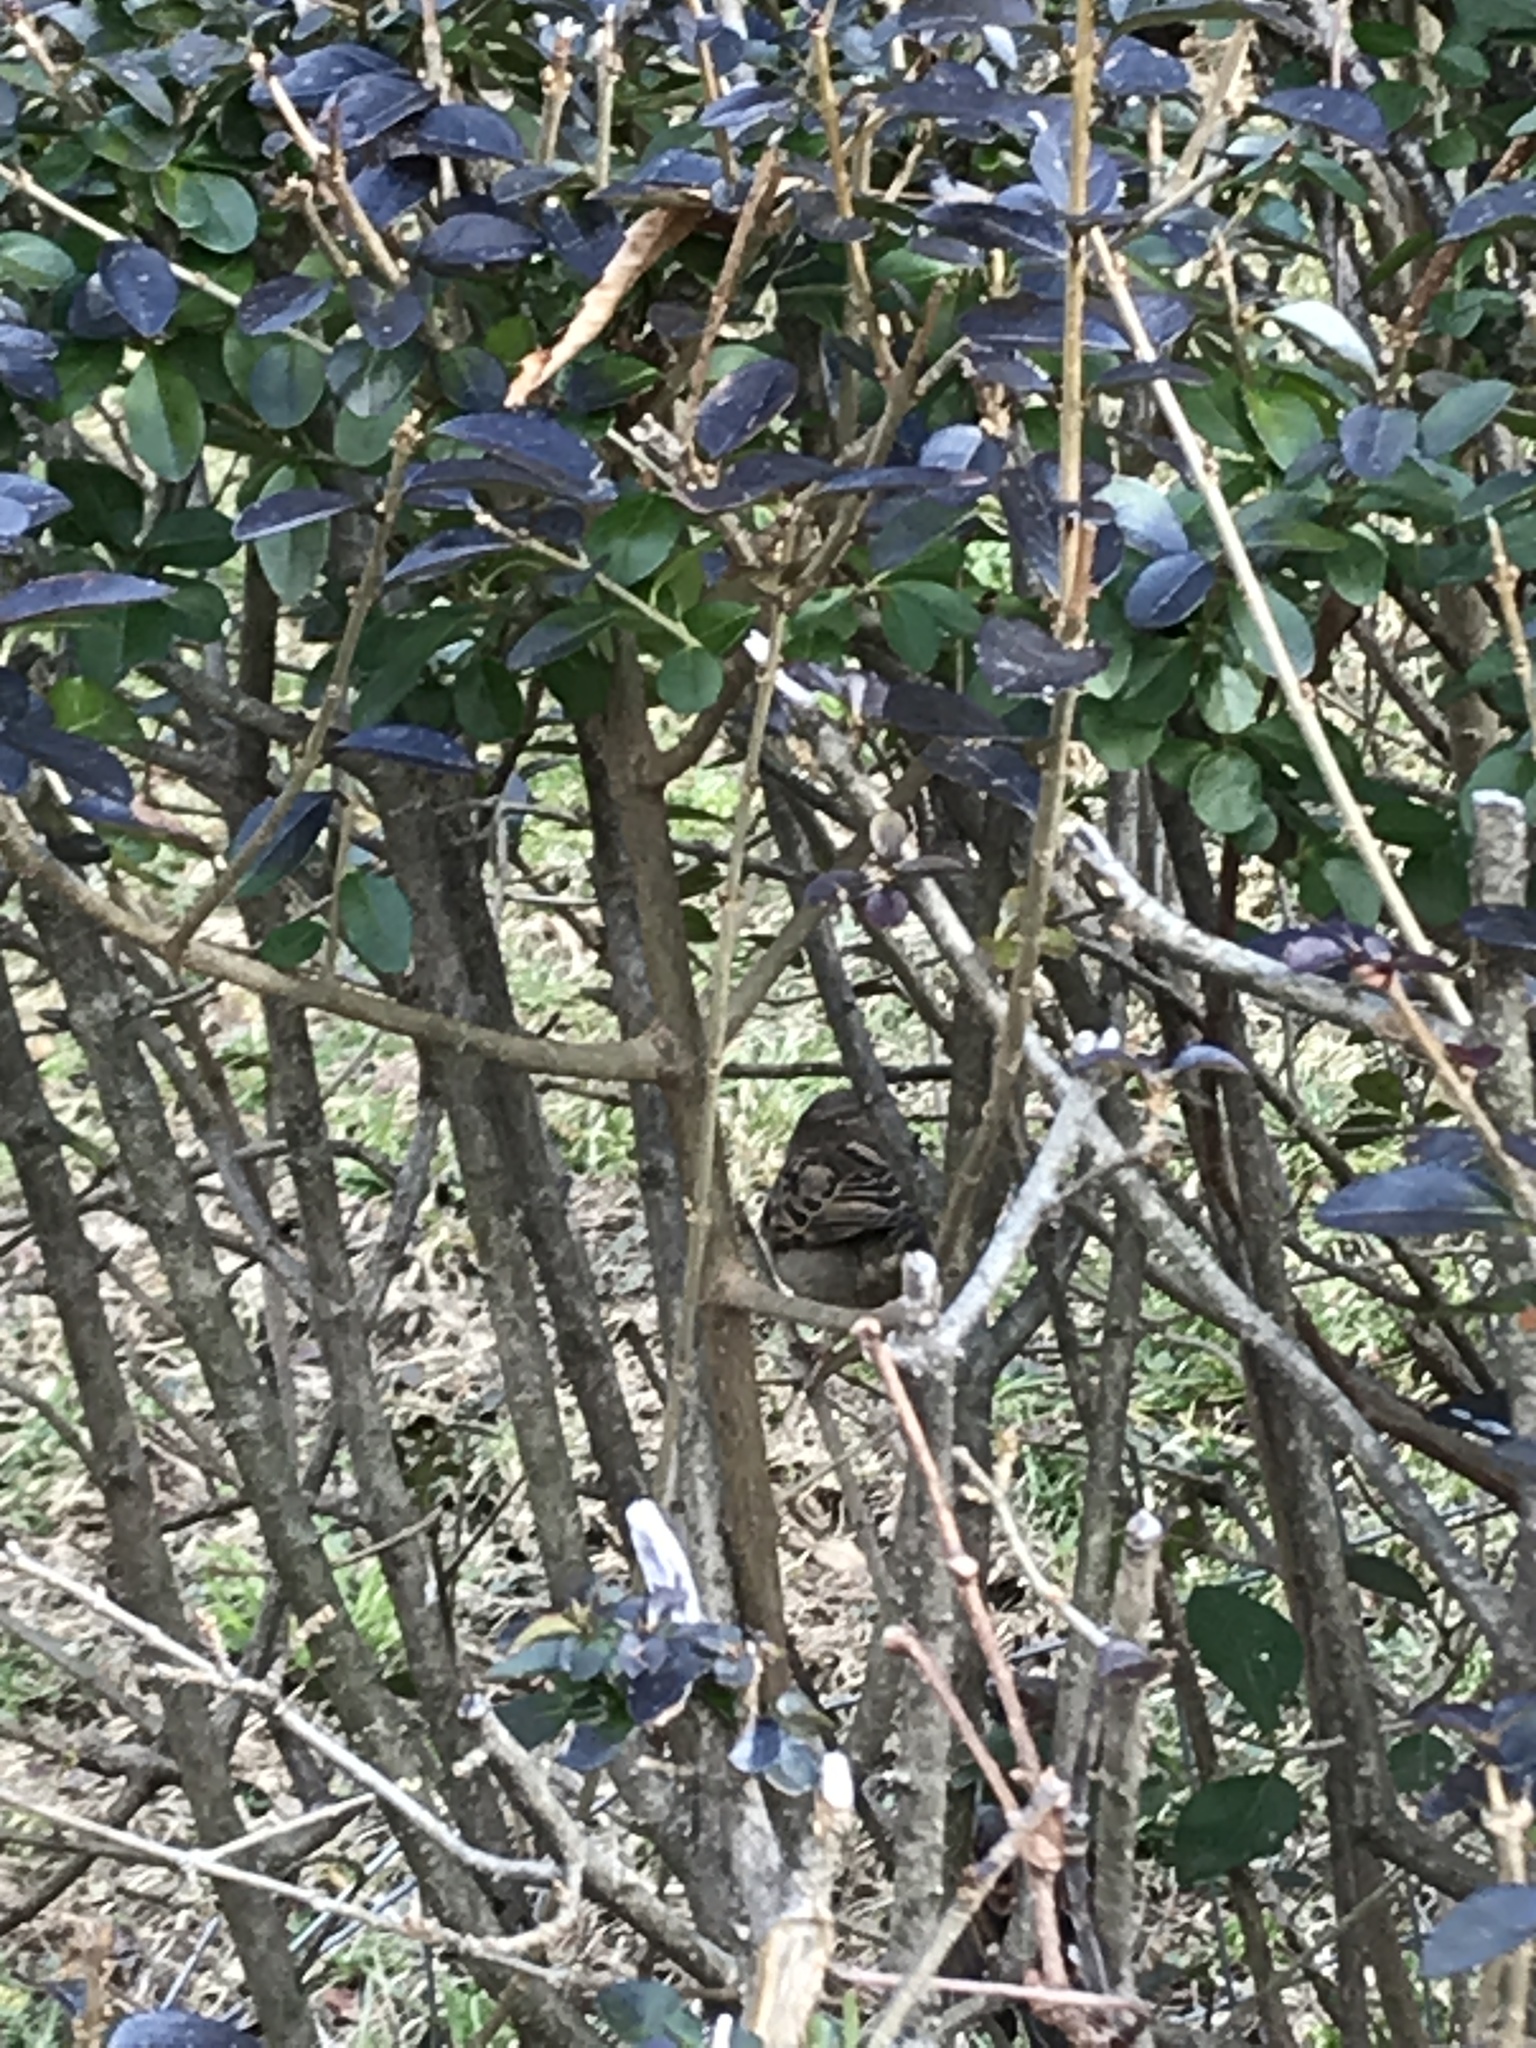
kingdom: Animalia
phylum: Chordata
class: Aves
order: Passeriformes
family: Passeridae
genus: Passer
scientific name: Passer domesticus
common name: House sparrow
